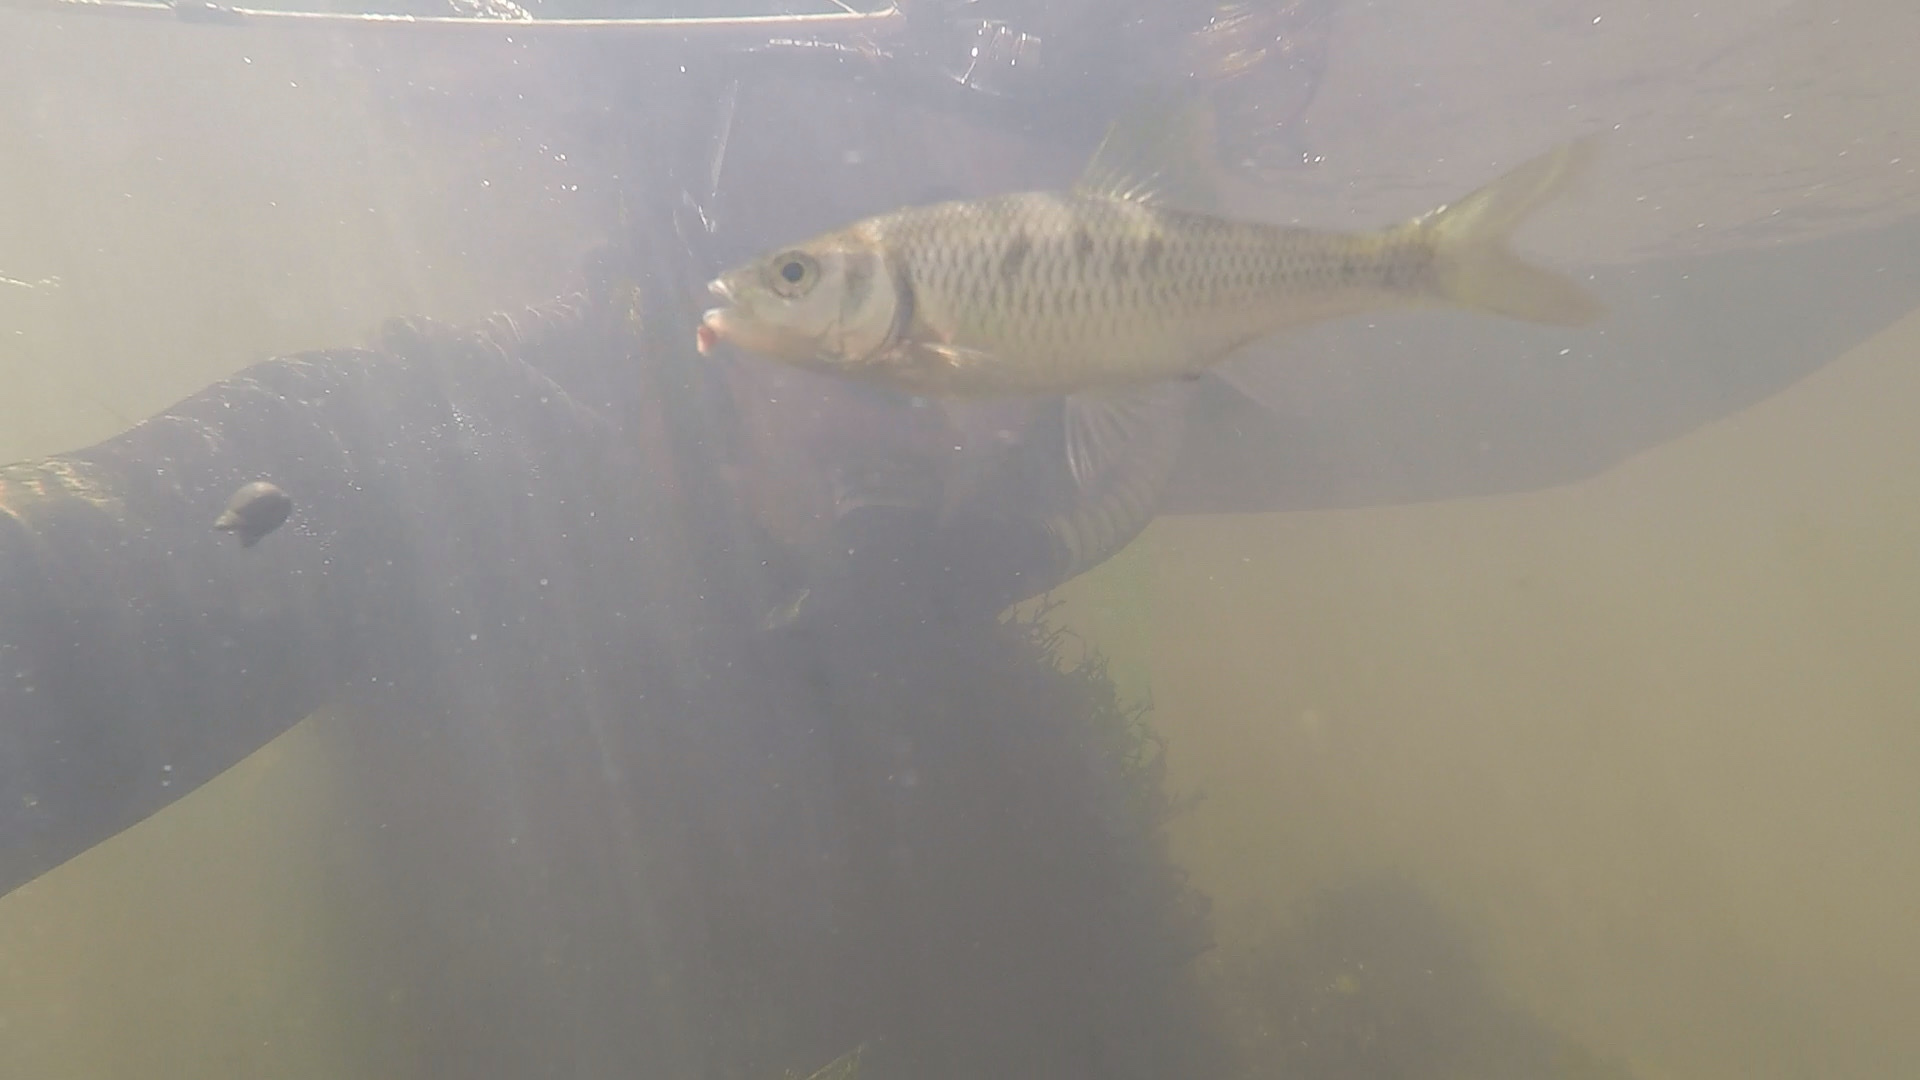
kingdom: Animalia
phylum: Chordata
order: Cypriniformes
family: Cyprinidae
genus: Luxilus
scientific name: Luxilus albeolus
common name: White shiner
